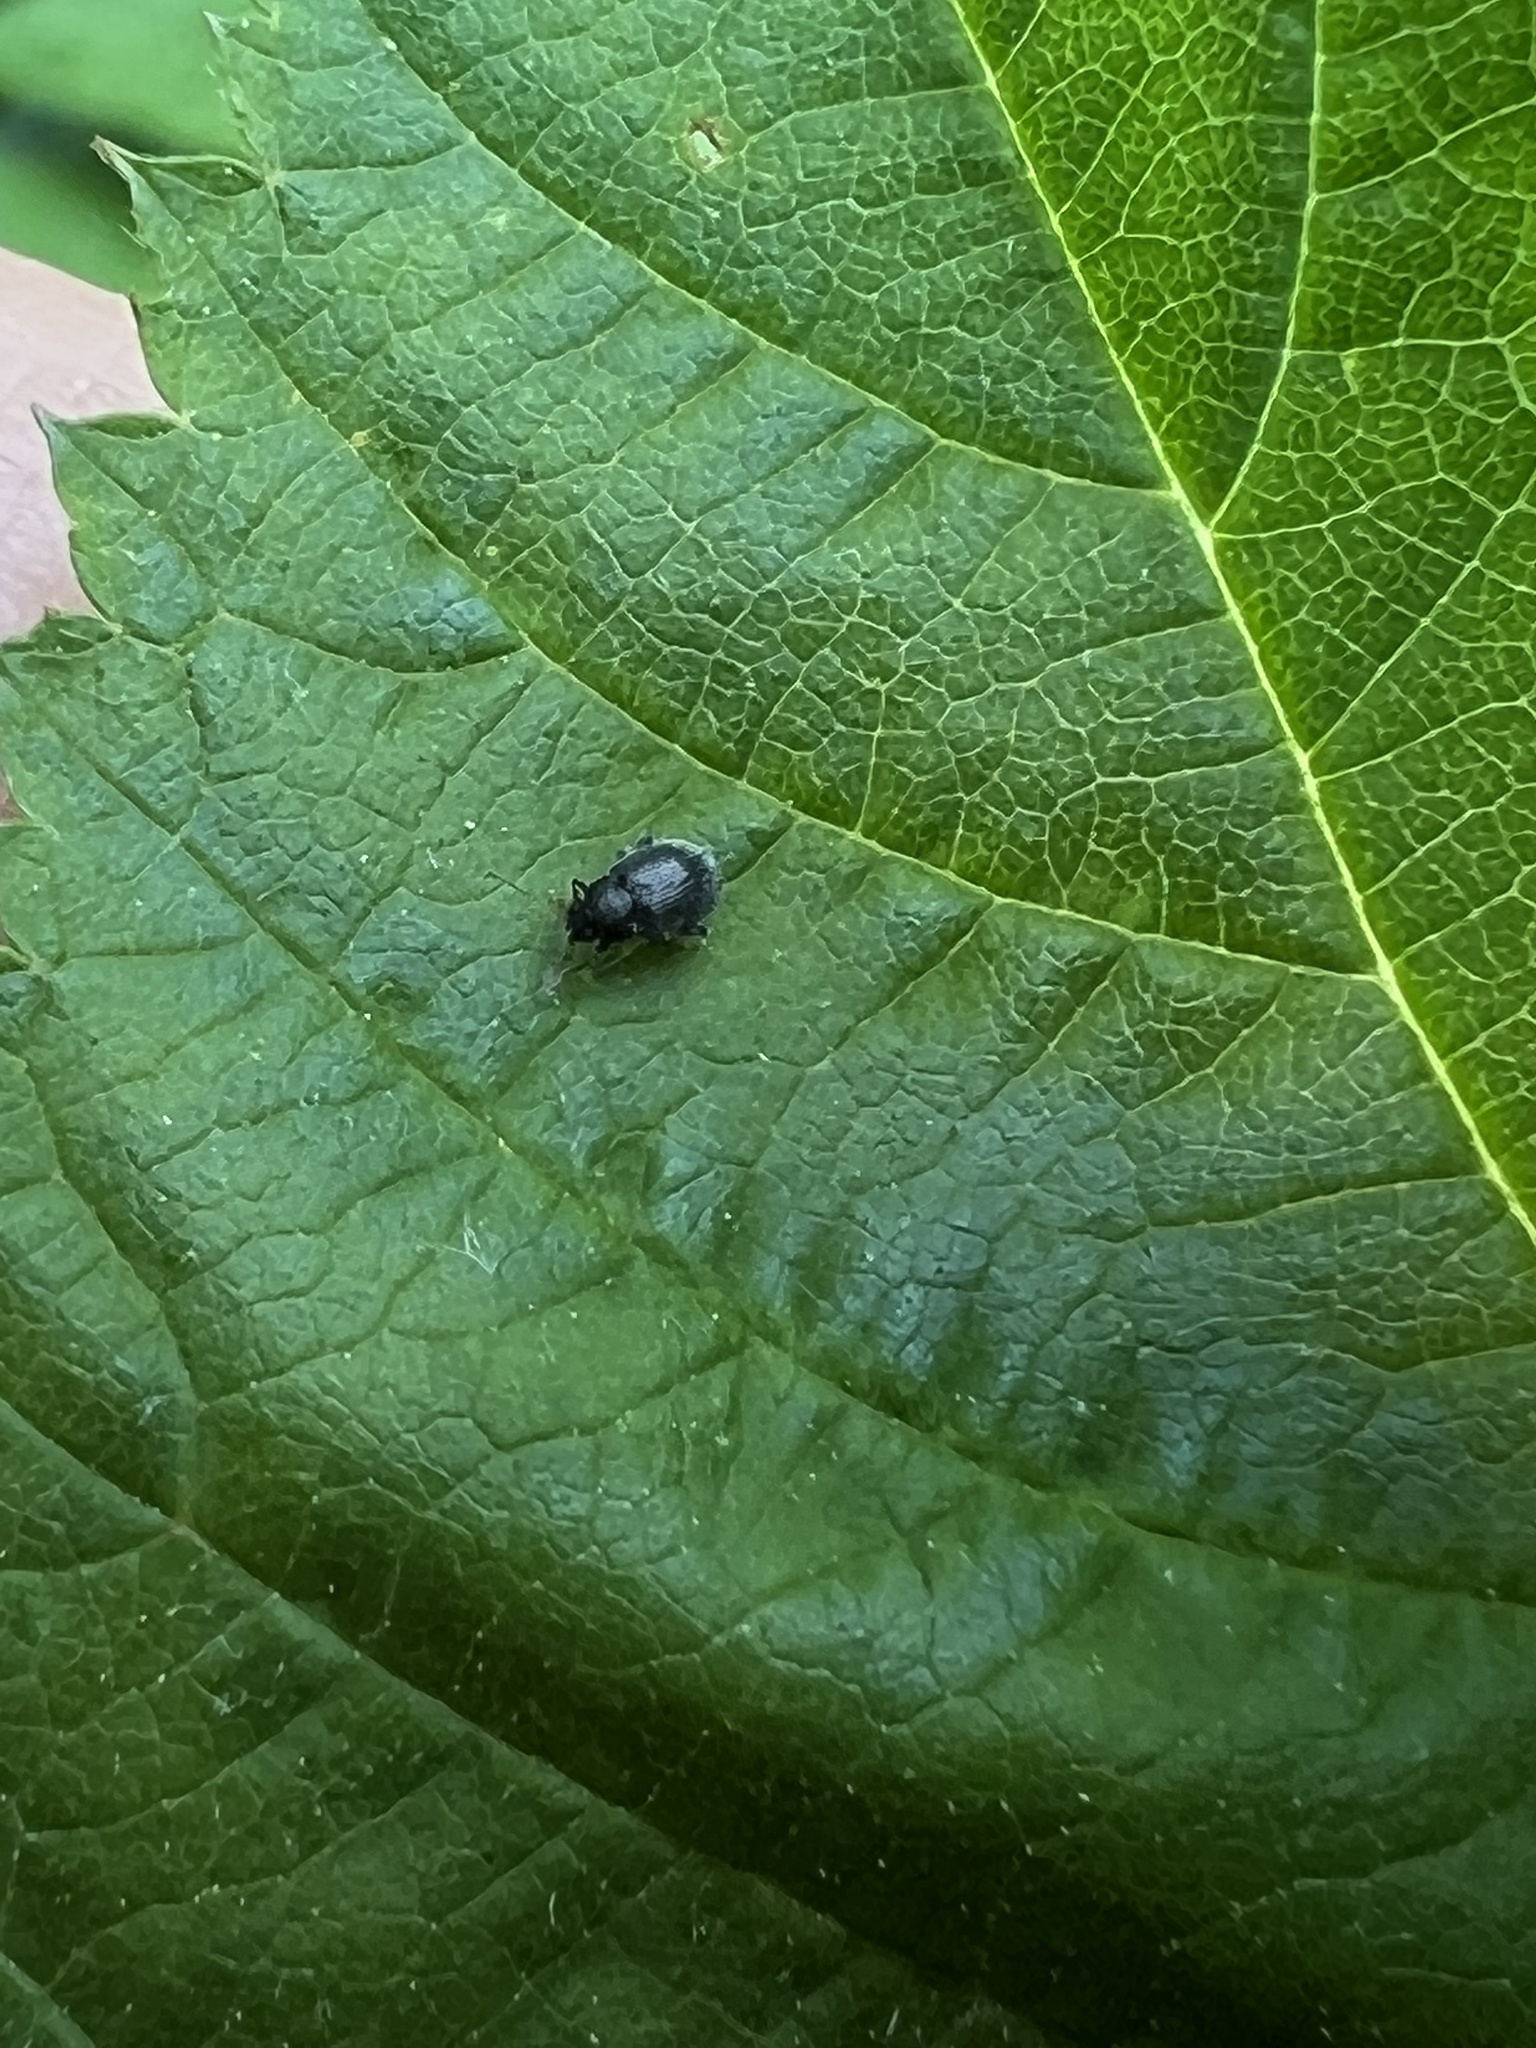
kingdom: Animalia
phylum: Arthropoda
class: Insecta
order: Coleoptera
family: Chrysomelidae
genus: Epitrix
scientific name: Epitrix fuscula
